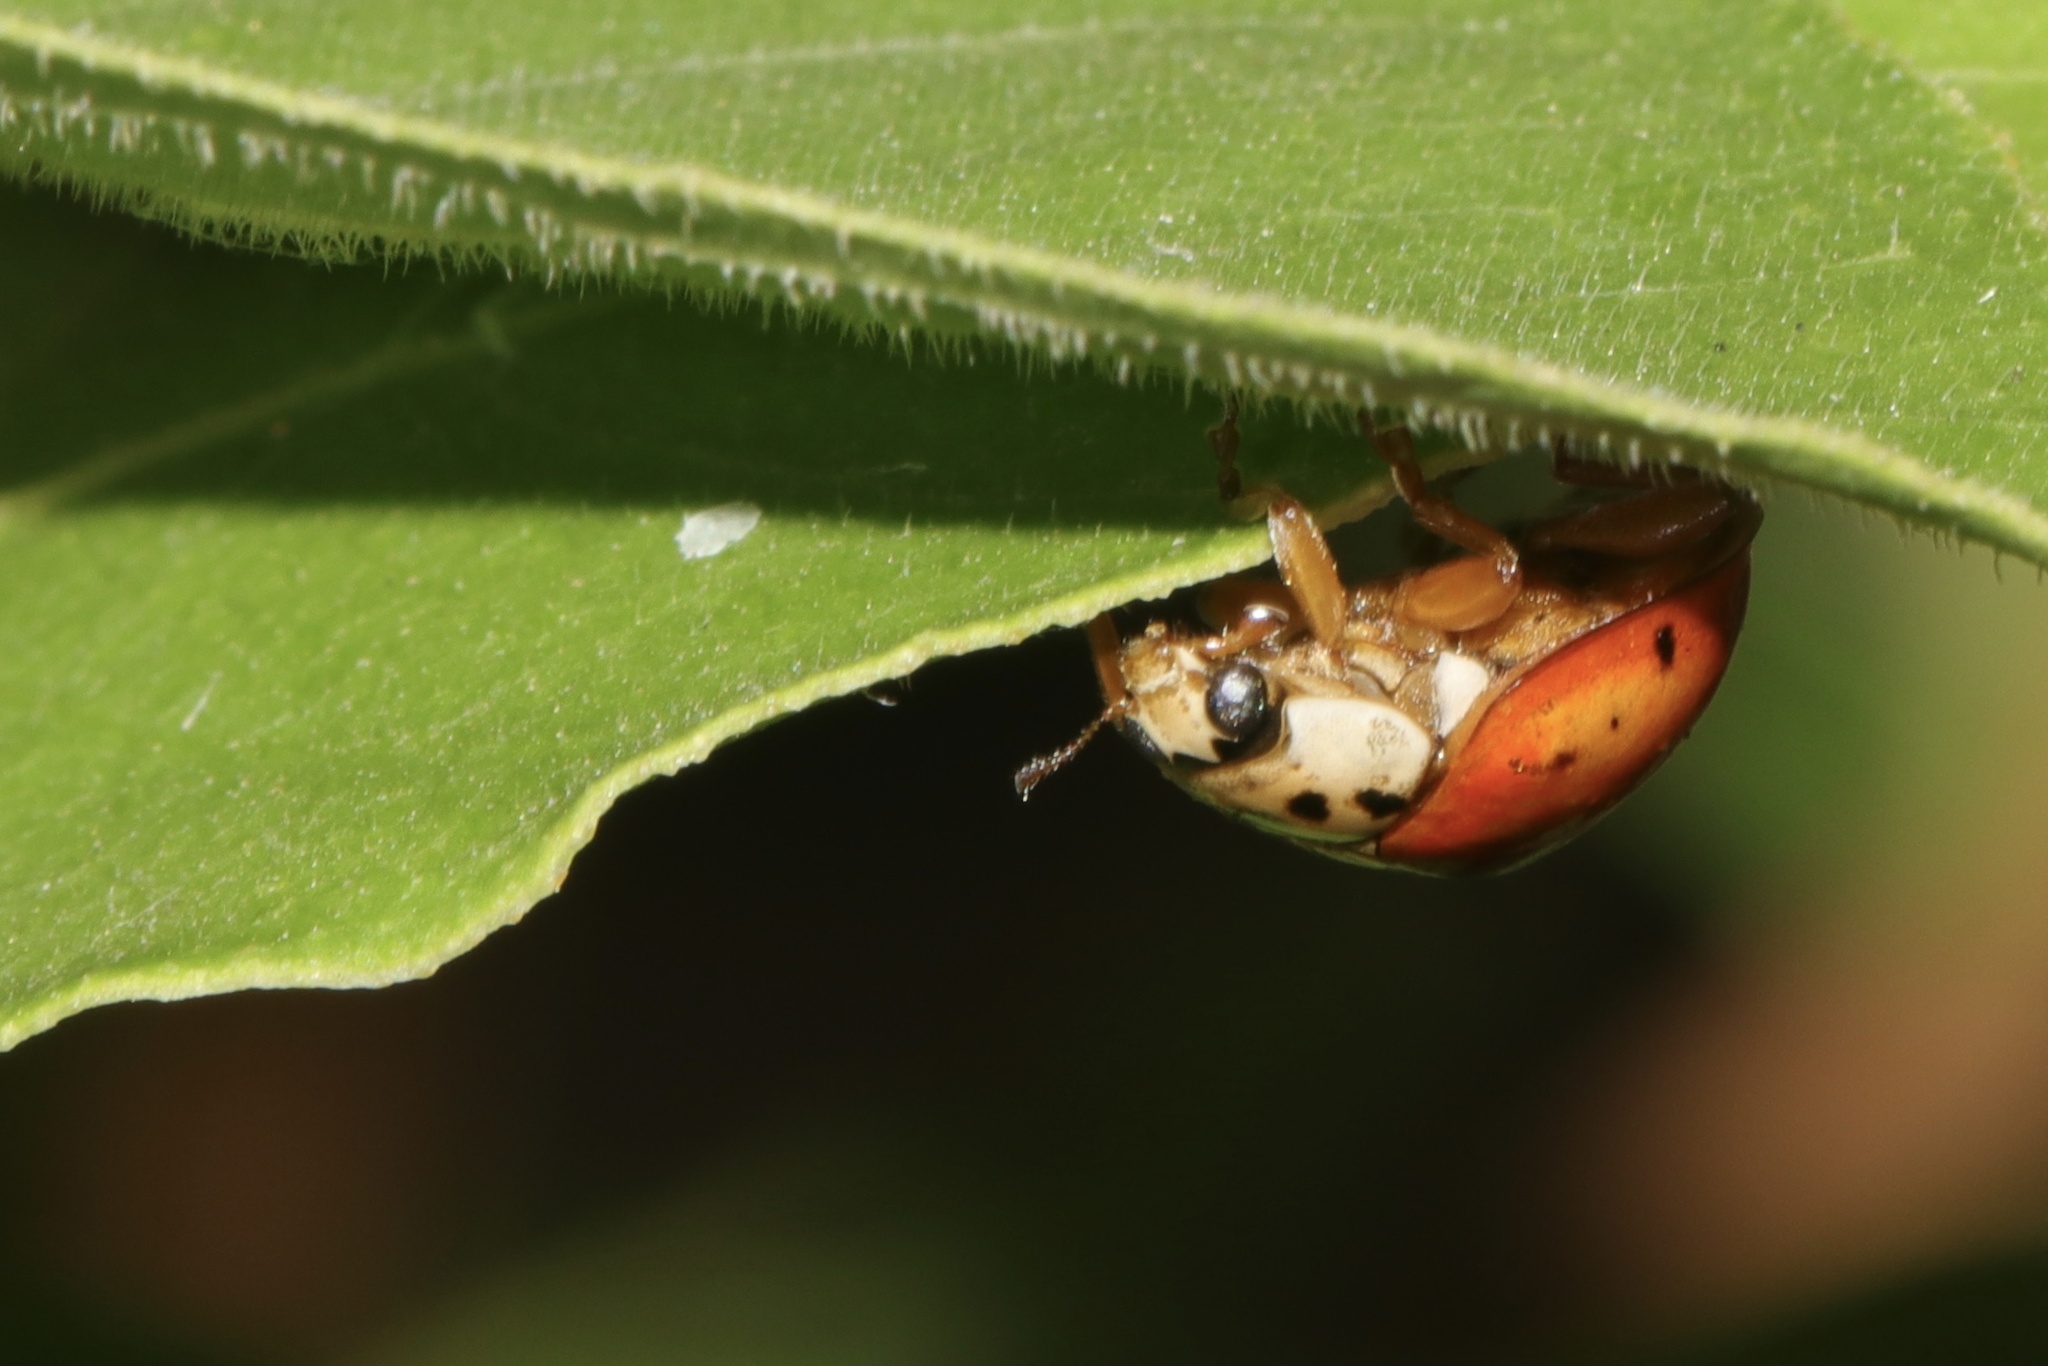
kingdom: Animalia
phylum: Arthropoda
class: Insecta
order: Coleoptera
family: Coccinellidae
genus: Harmonia
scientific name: Harmonia axyridis
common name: Harlequin ladybird
